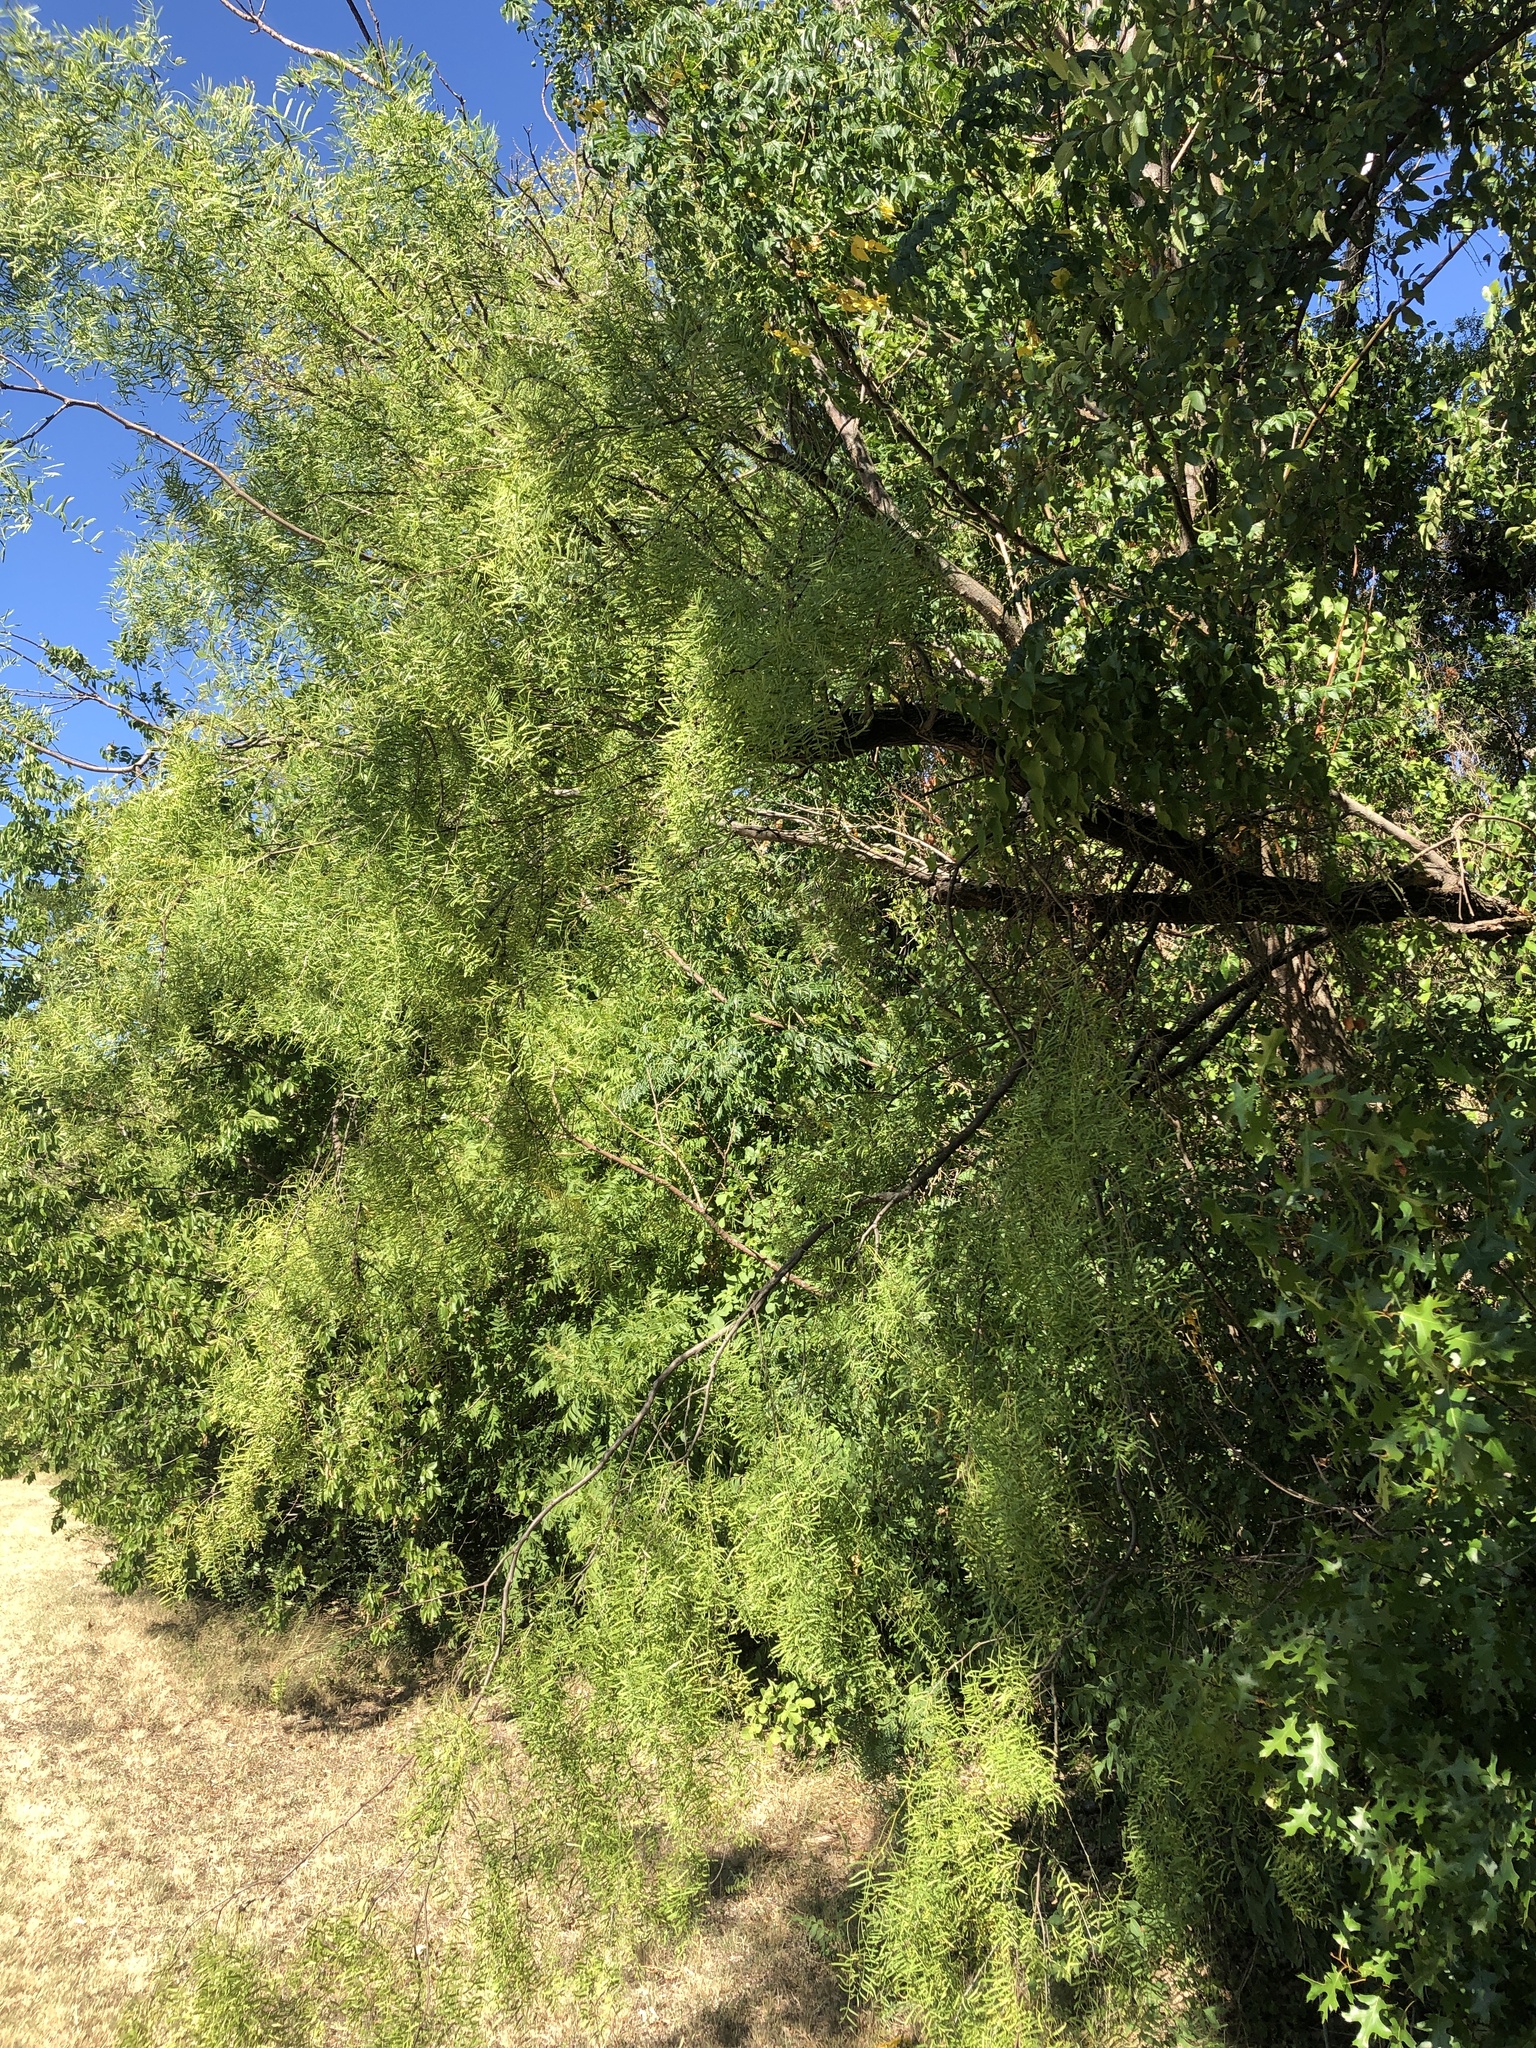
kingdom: Plantae
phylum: Tracheophyta
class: Magnoliopsida
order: Fabales
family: Fabaceae
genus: Prosopis
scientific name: Prosopis glandulosa
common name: Honey mesquite
